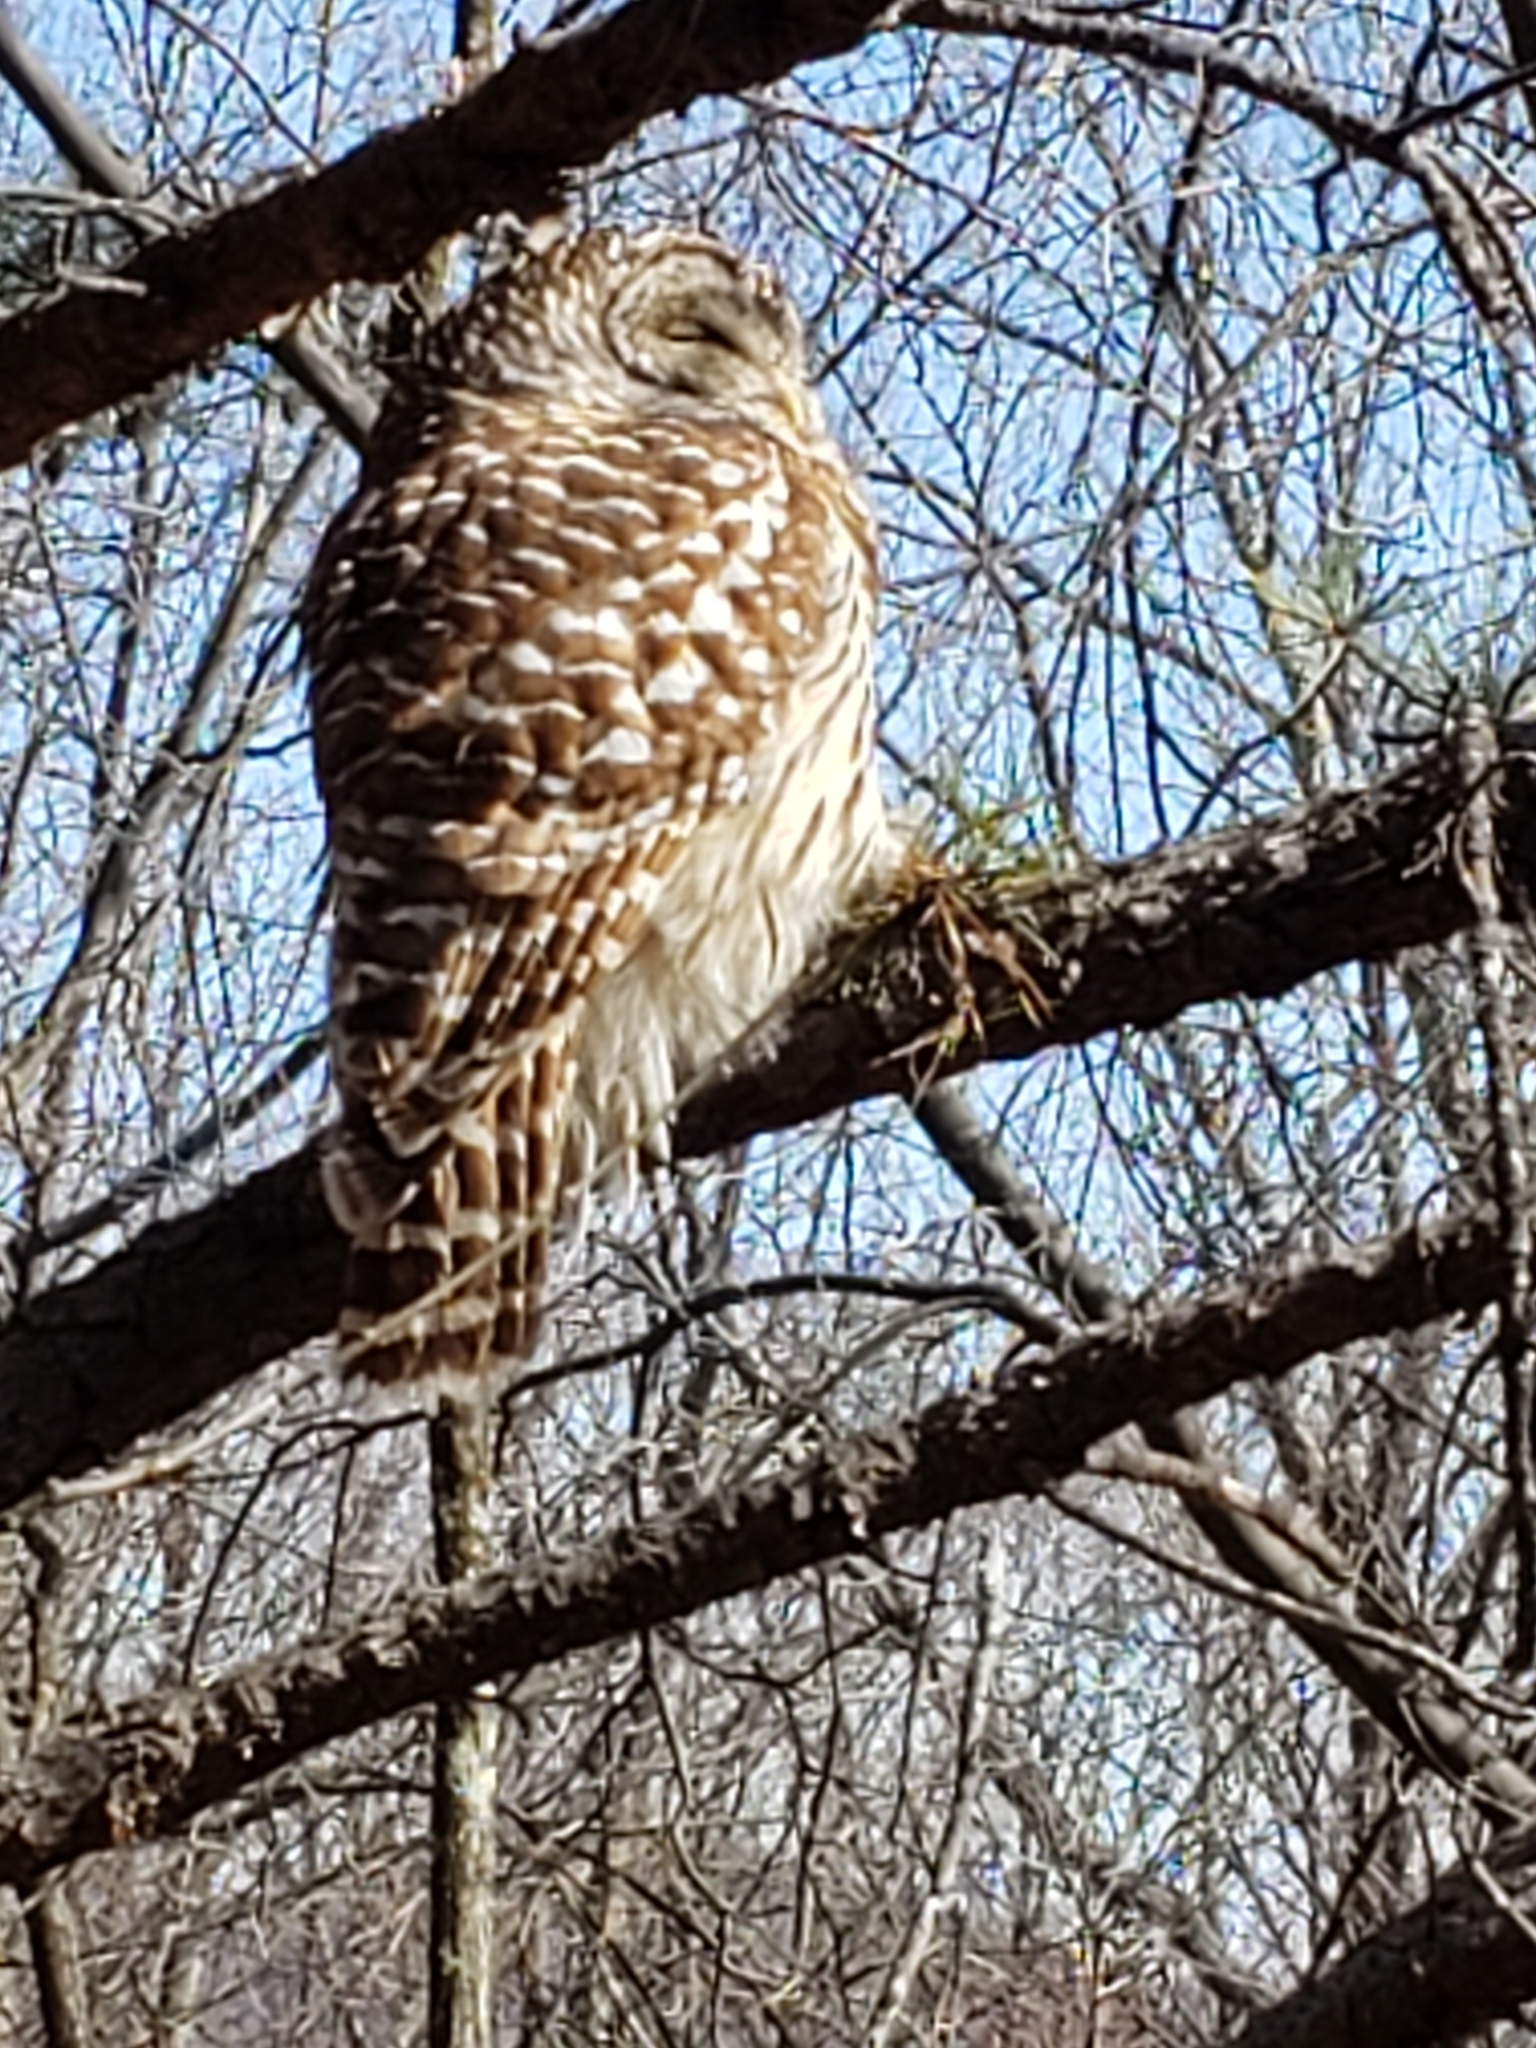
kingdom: Animalia
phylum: Chordata
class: Aves
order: Strigiformes
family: Strigidae
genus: Strix
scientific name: Strix varia
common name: Barred owl
